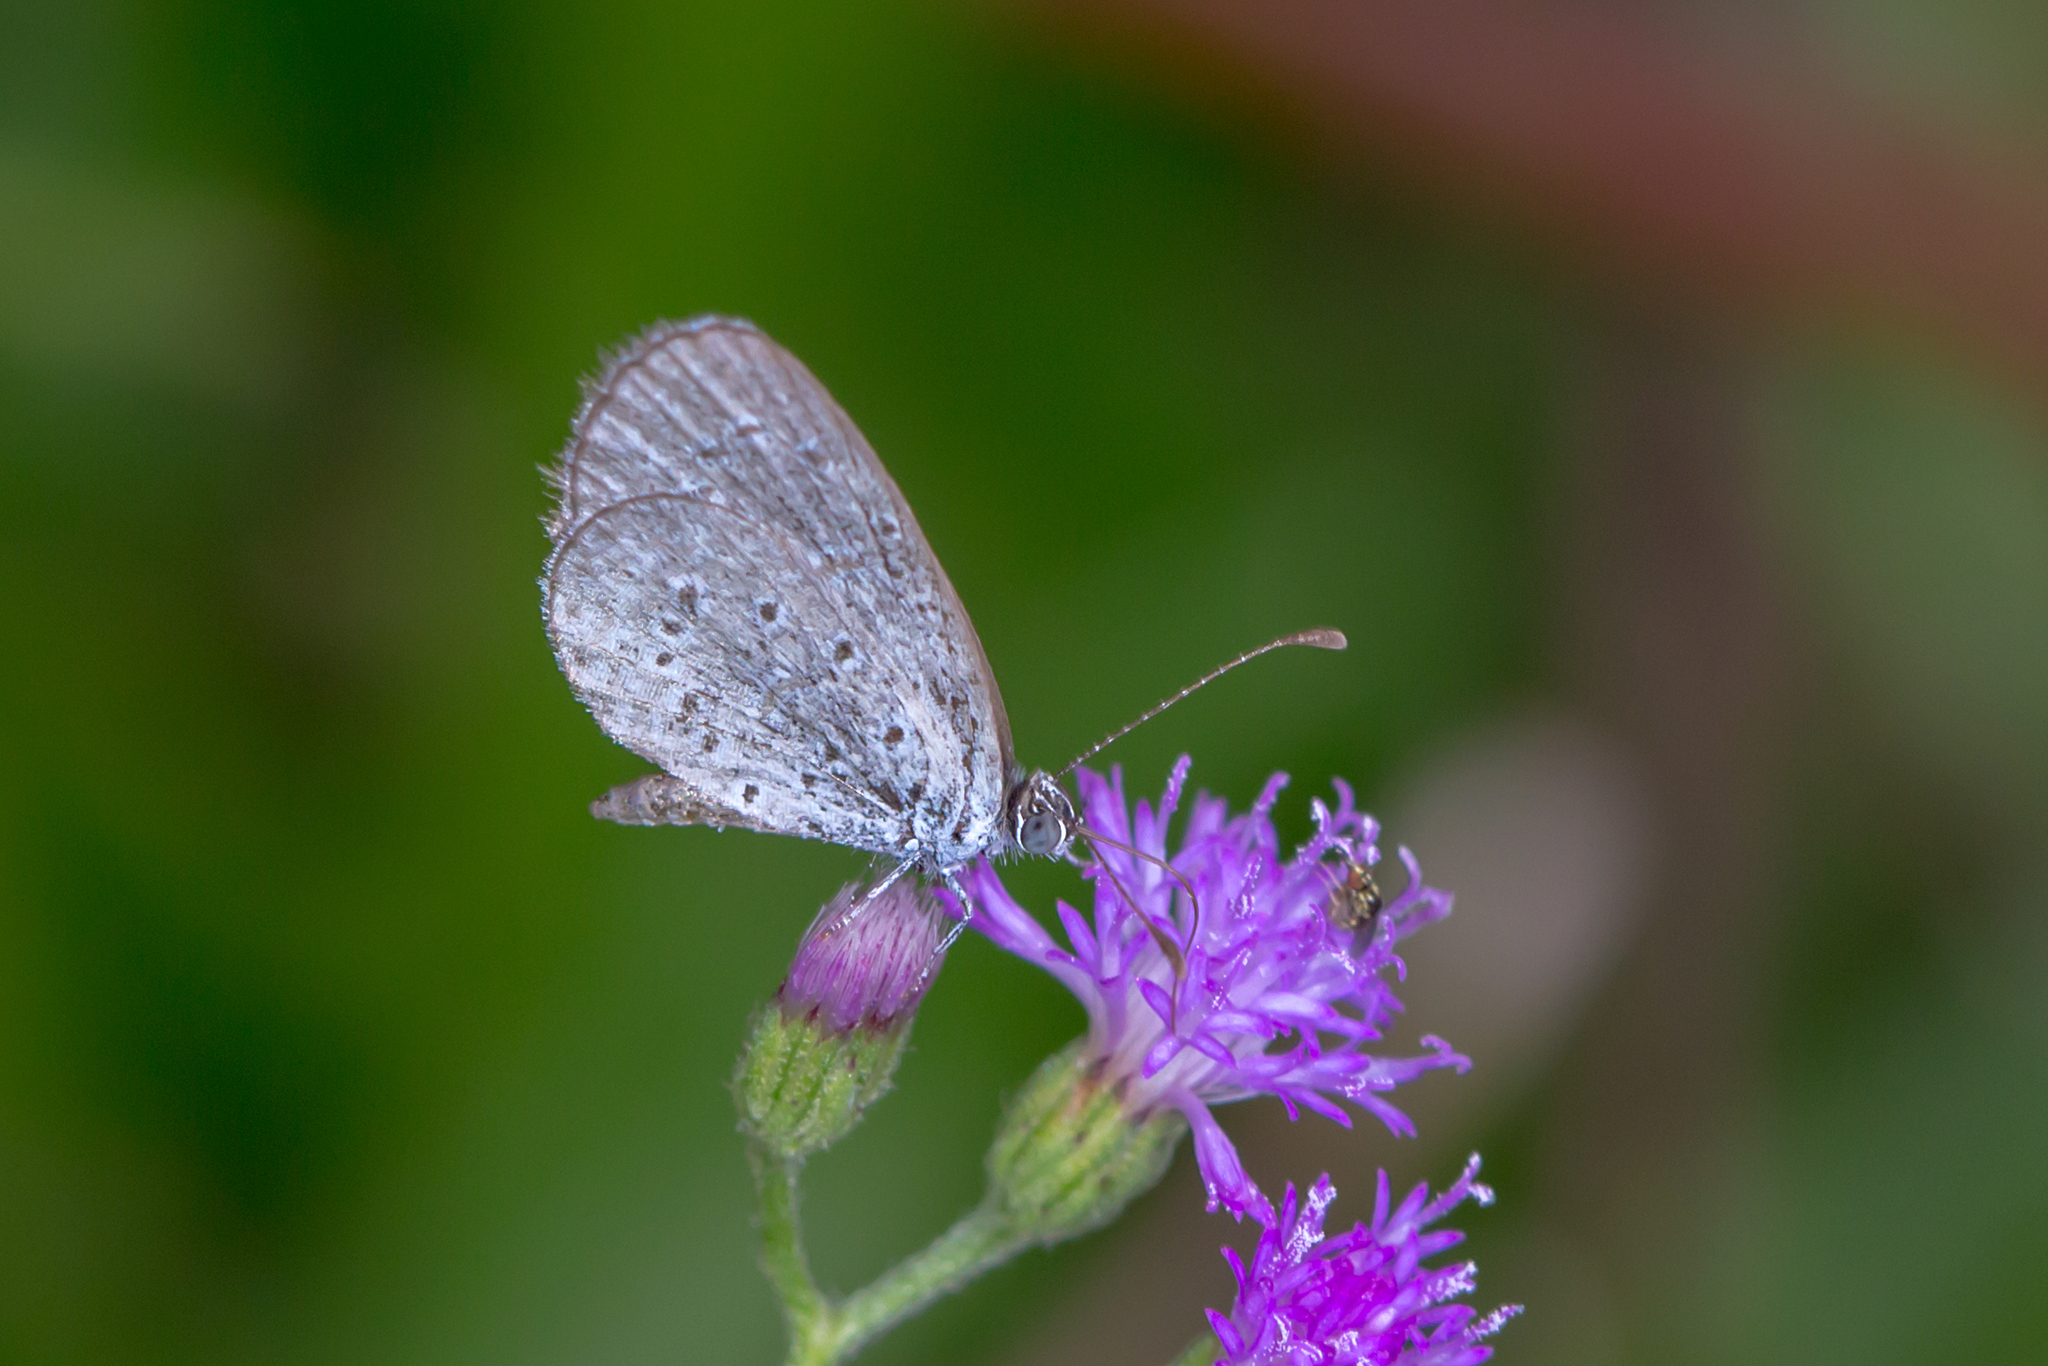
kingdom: Animalia
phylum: Arthropoda
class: Insecta
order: Lepidoptera
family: Lycaenidae
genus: Zizula
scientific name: Zizula hylax
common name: Gaika blue
